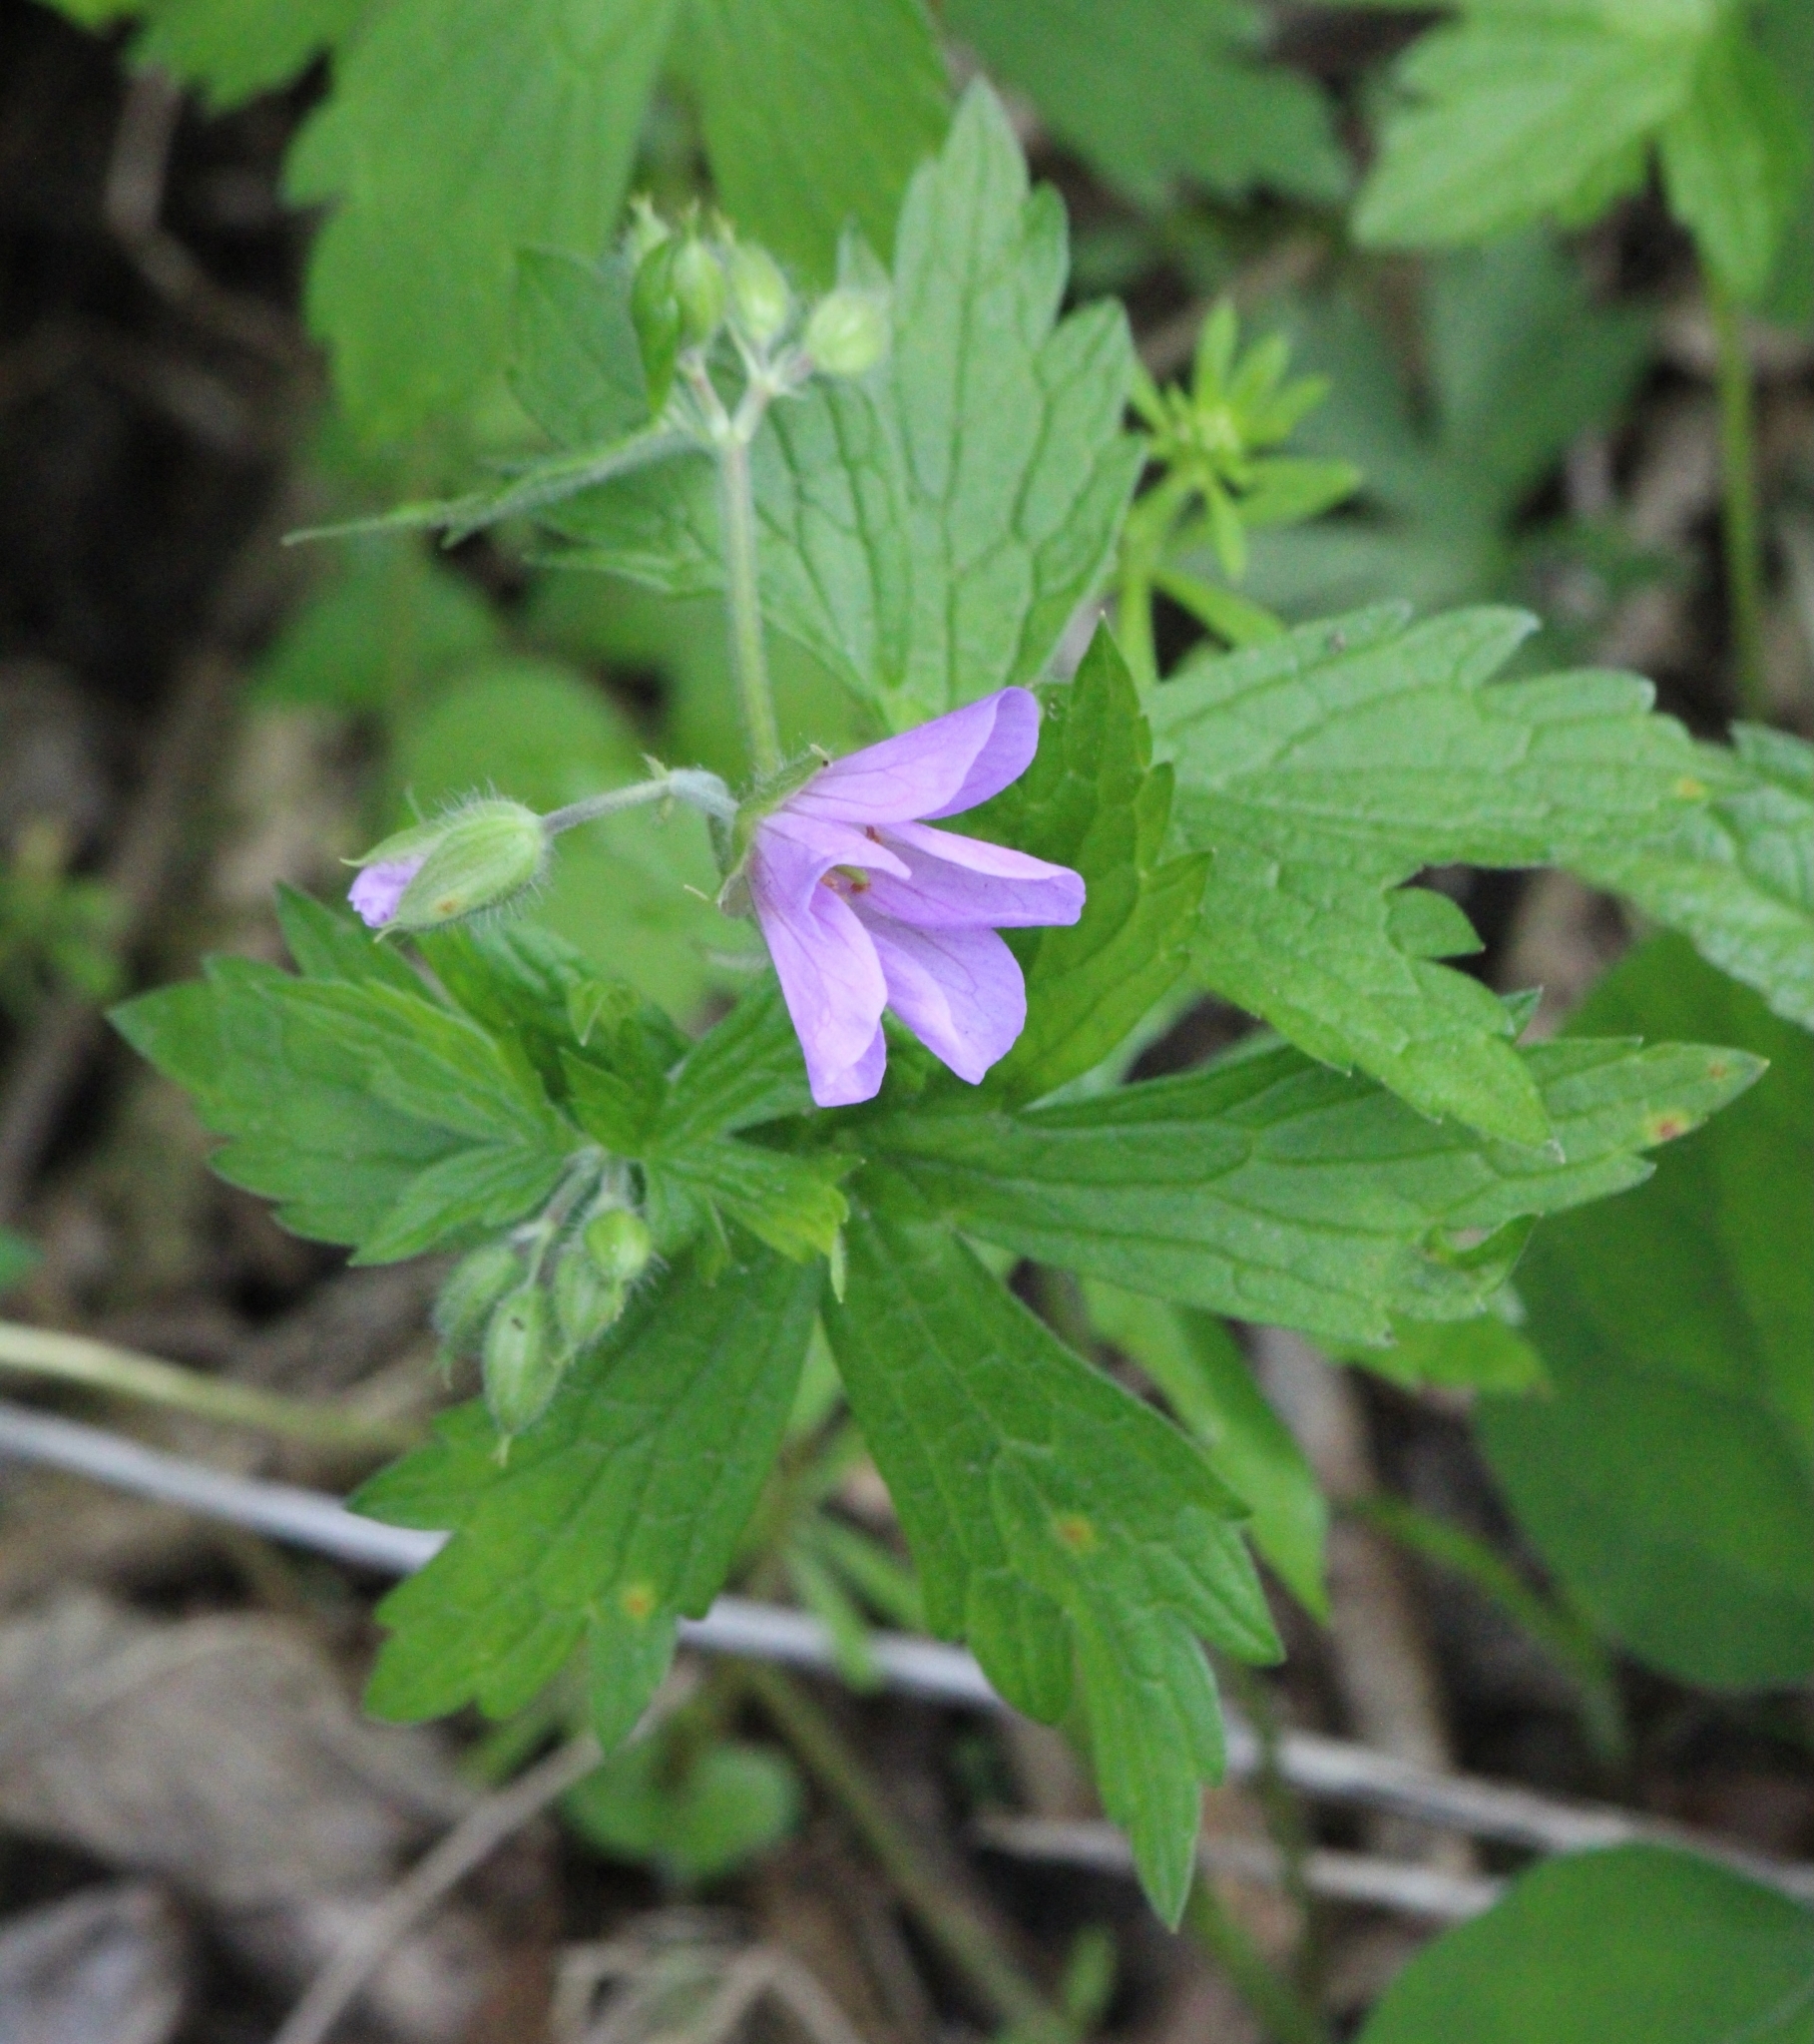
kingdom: Plantae
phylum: Tracheophyta
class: Magnoliopsida
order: Geraniales
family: Geraniaceae
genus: Geranium
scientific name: Geranium maculatum
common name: Spotted geranium
